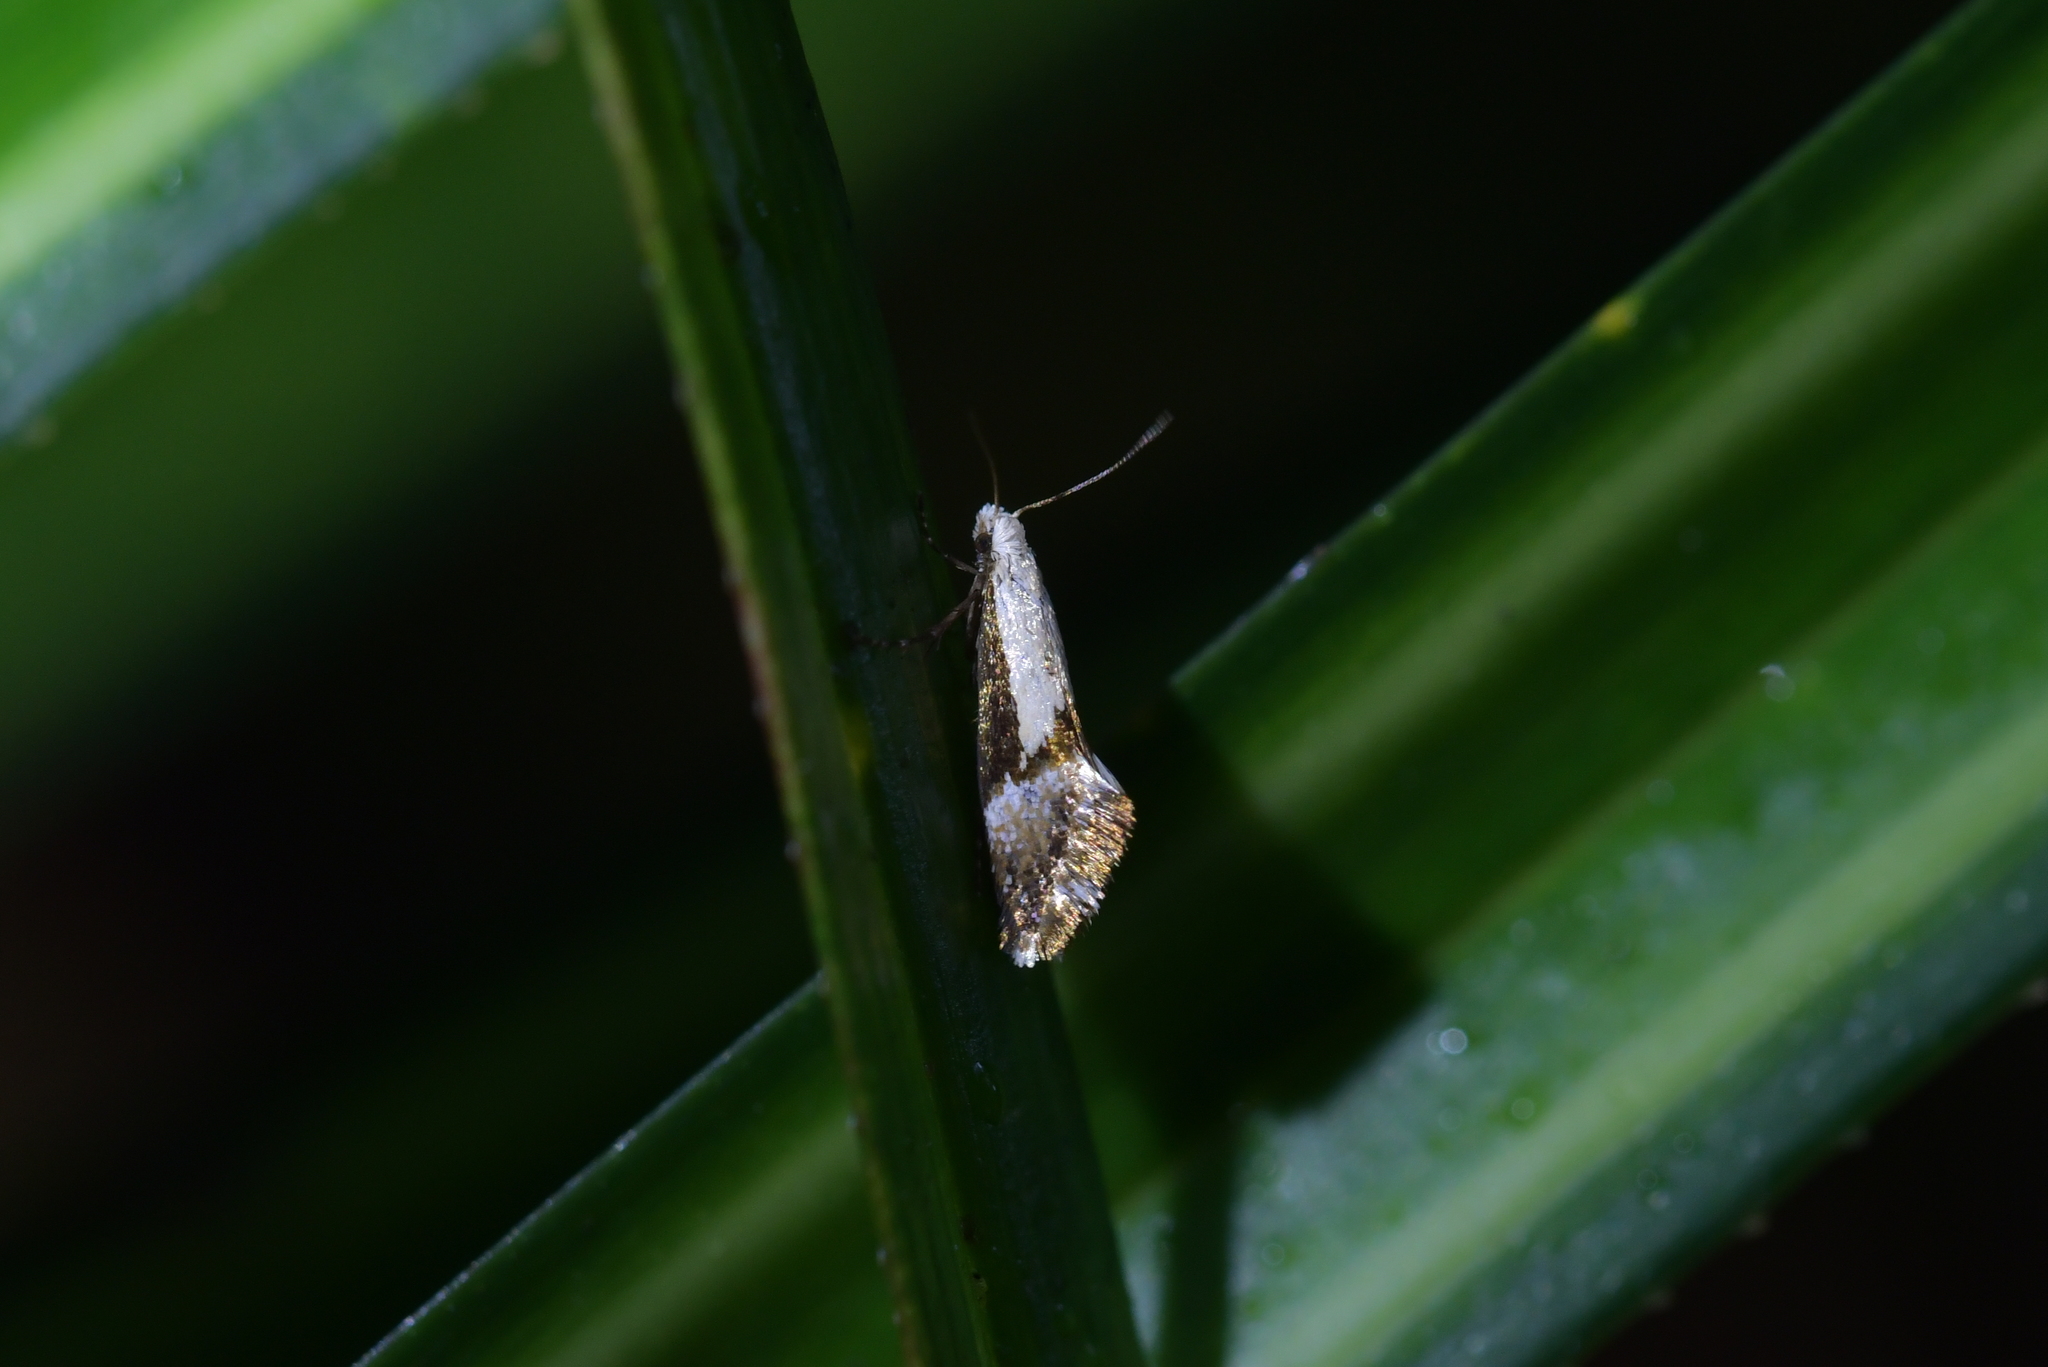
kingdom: Animalia
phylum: Arthropoda
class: Insecta
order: Lepidoptera
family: Mnesarchaeidae
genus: Mnesarchella
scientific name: Mnesarchella fusilella
